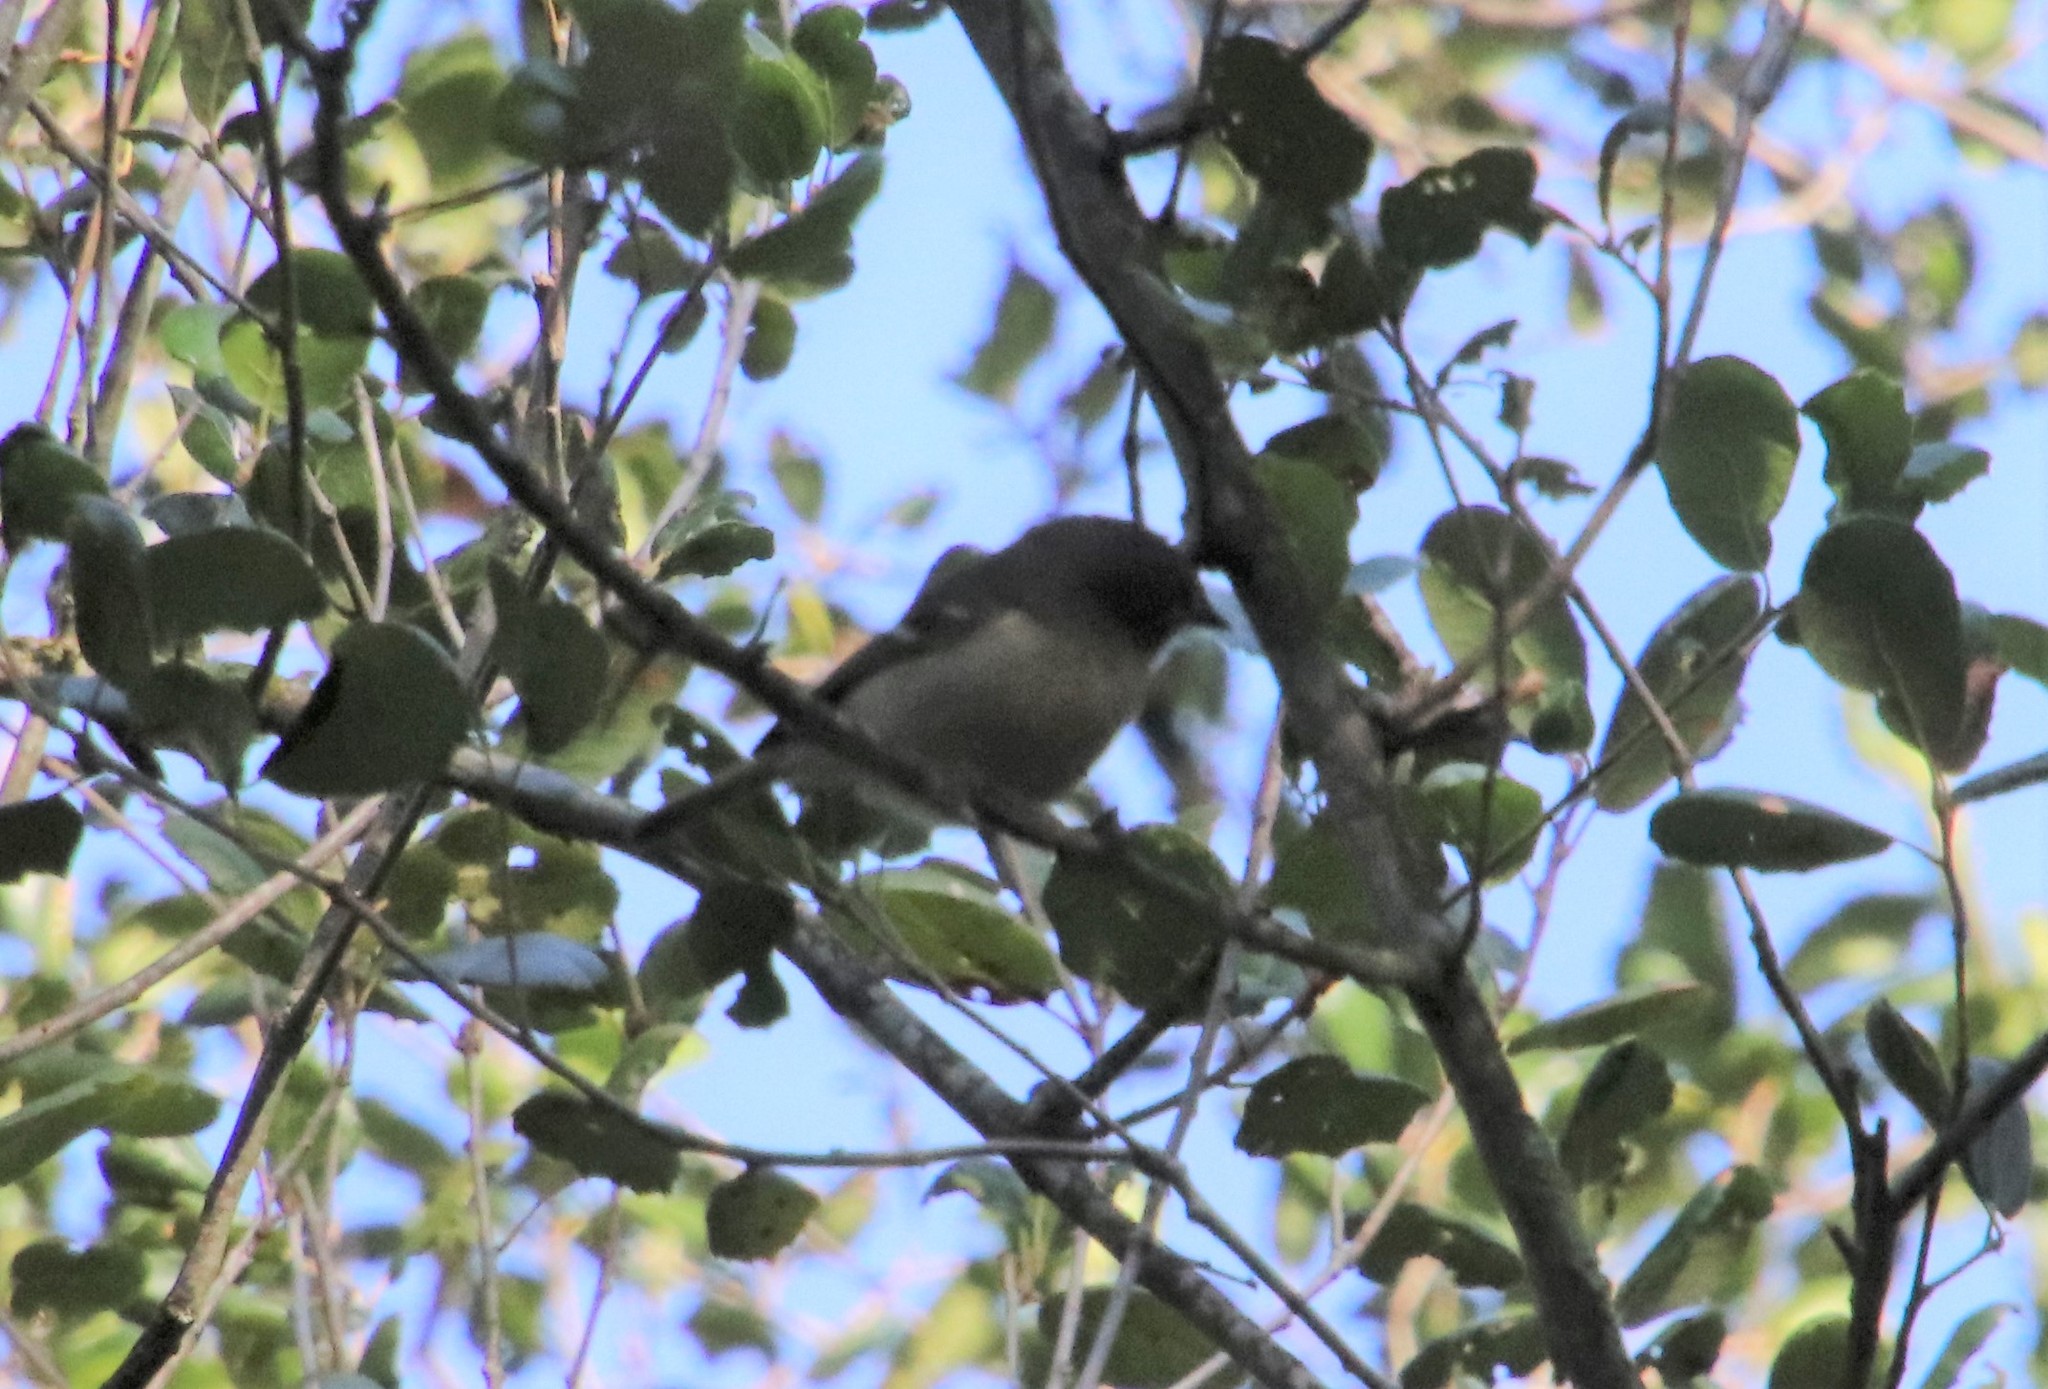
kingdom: Animalia
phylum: Chordata
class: Aves
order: Passeriformes
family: Vireonidae
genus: Vireo
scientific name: Vireo huttoni
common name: Hutton's vireo
